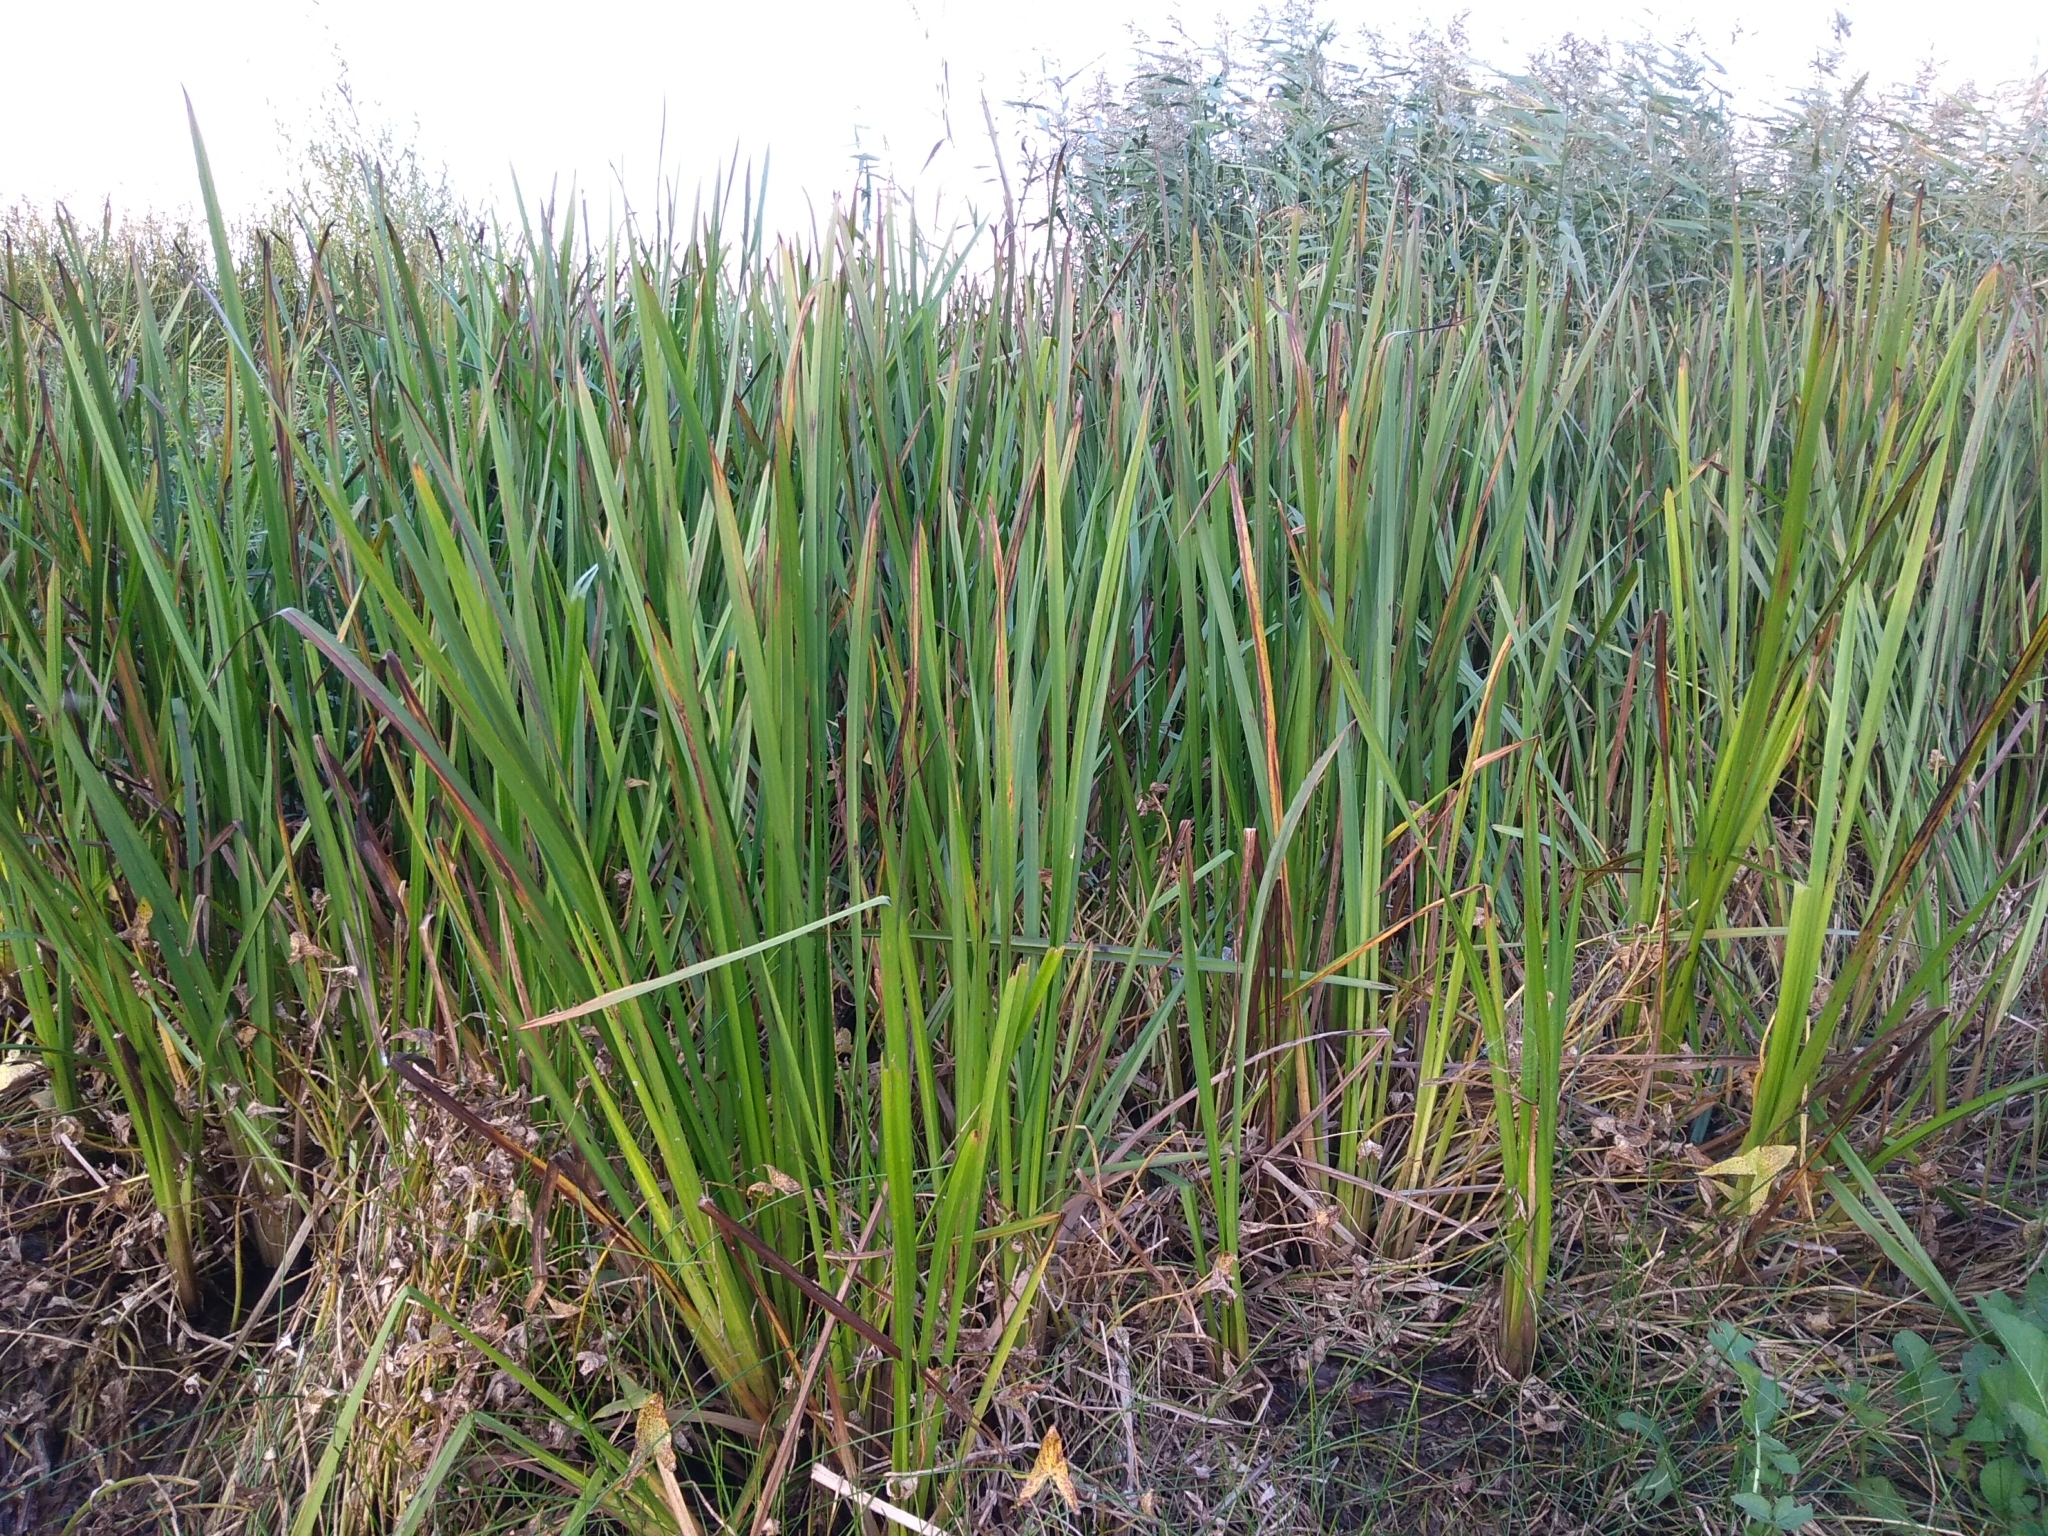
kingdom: Plantae
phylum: Tracheophyta
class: Liliopsida
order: Poales
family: Typhaceae
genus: Sparganium
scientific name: Sparganium erectum
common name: Branched bur-reed
